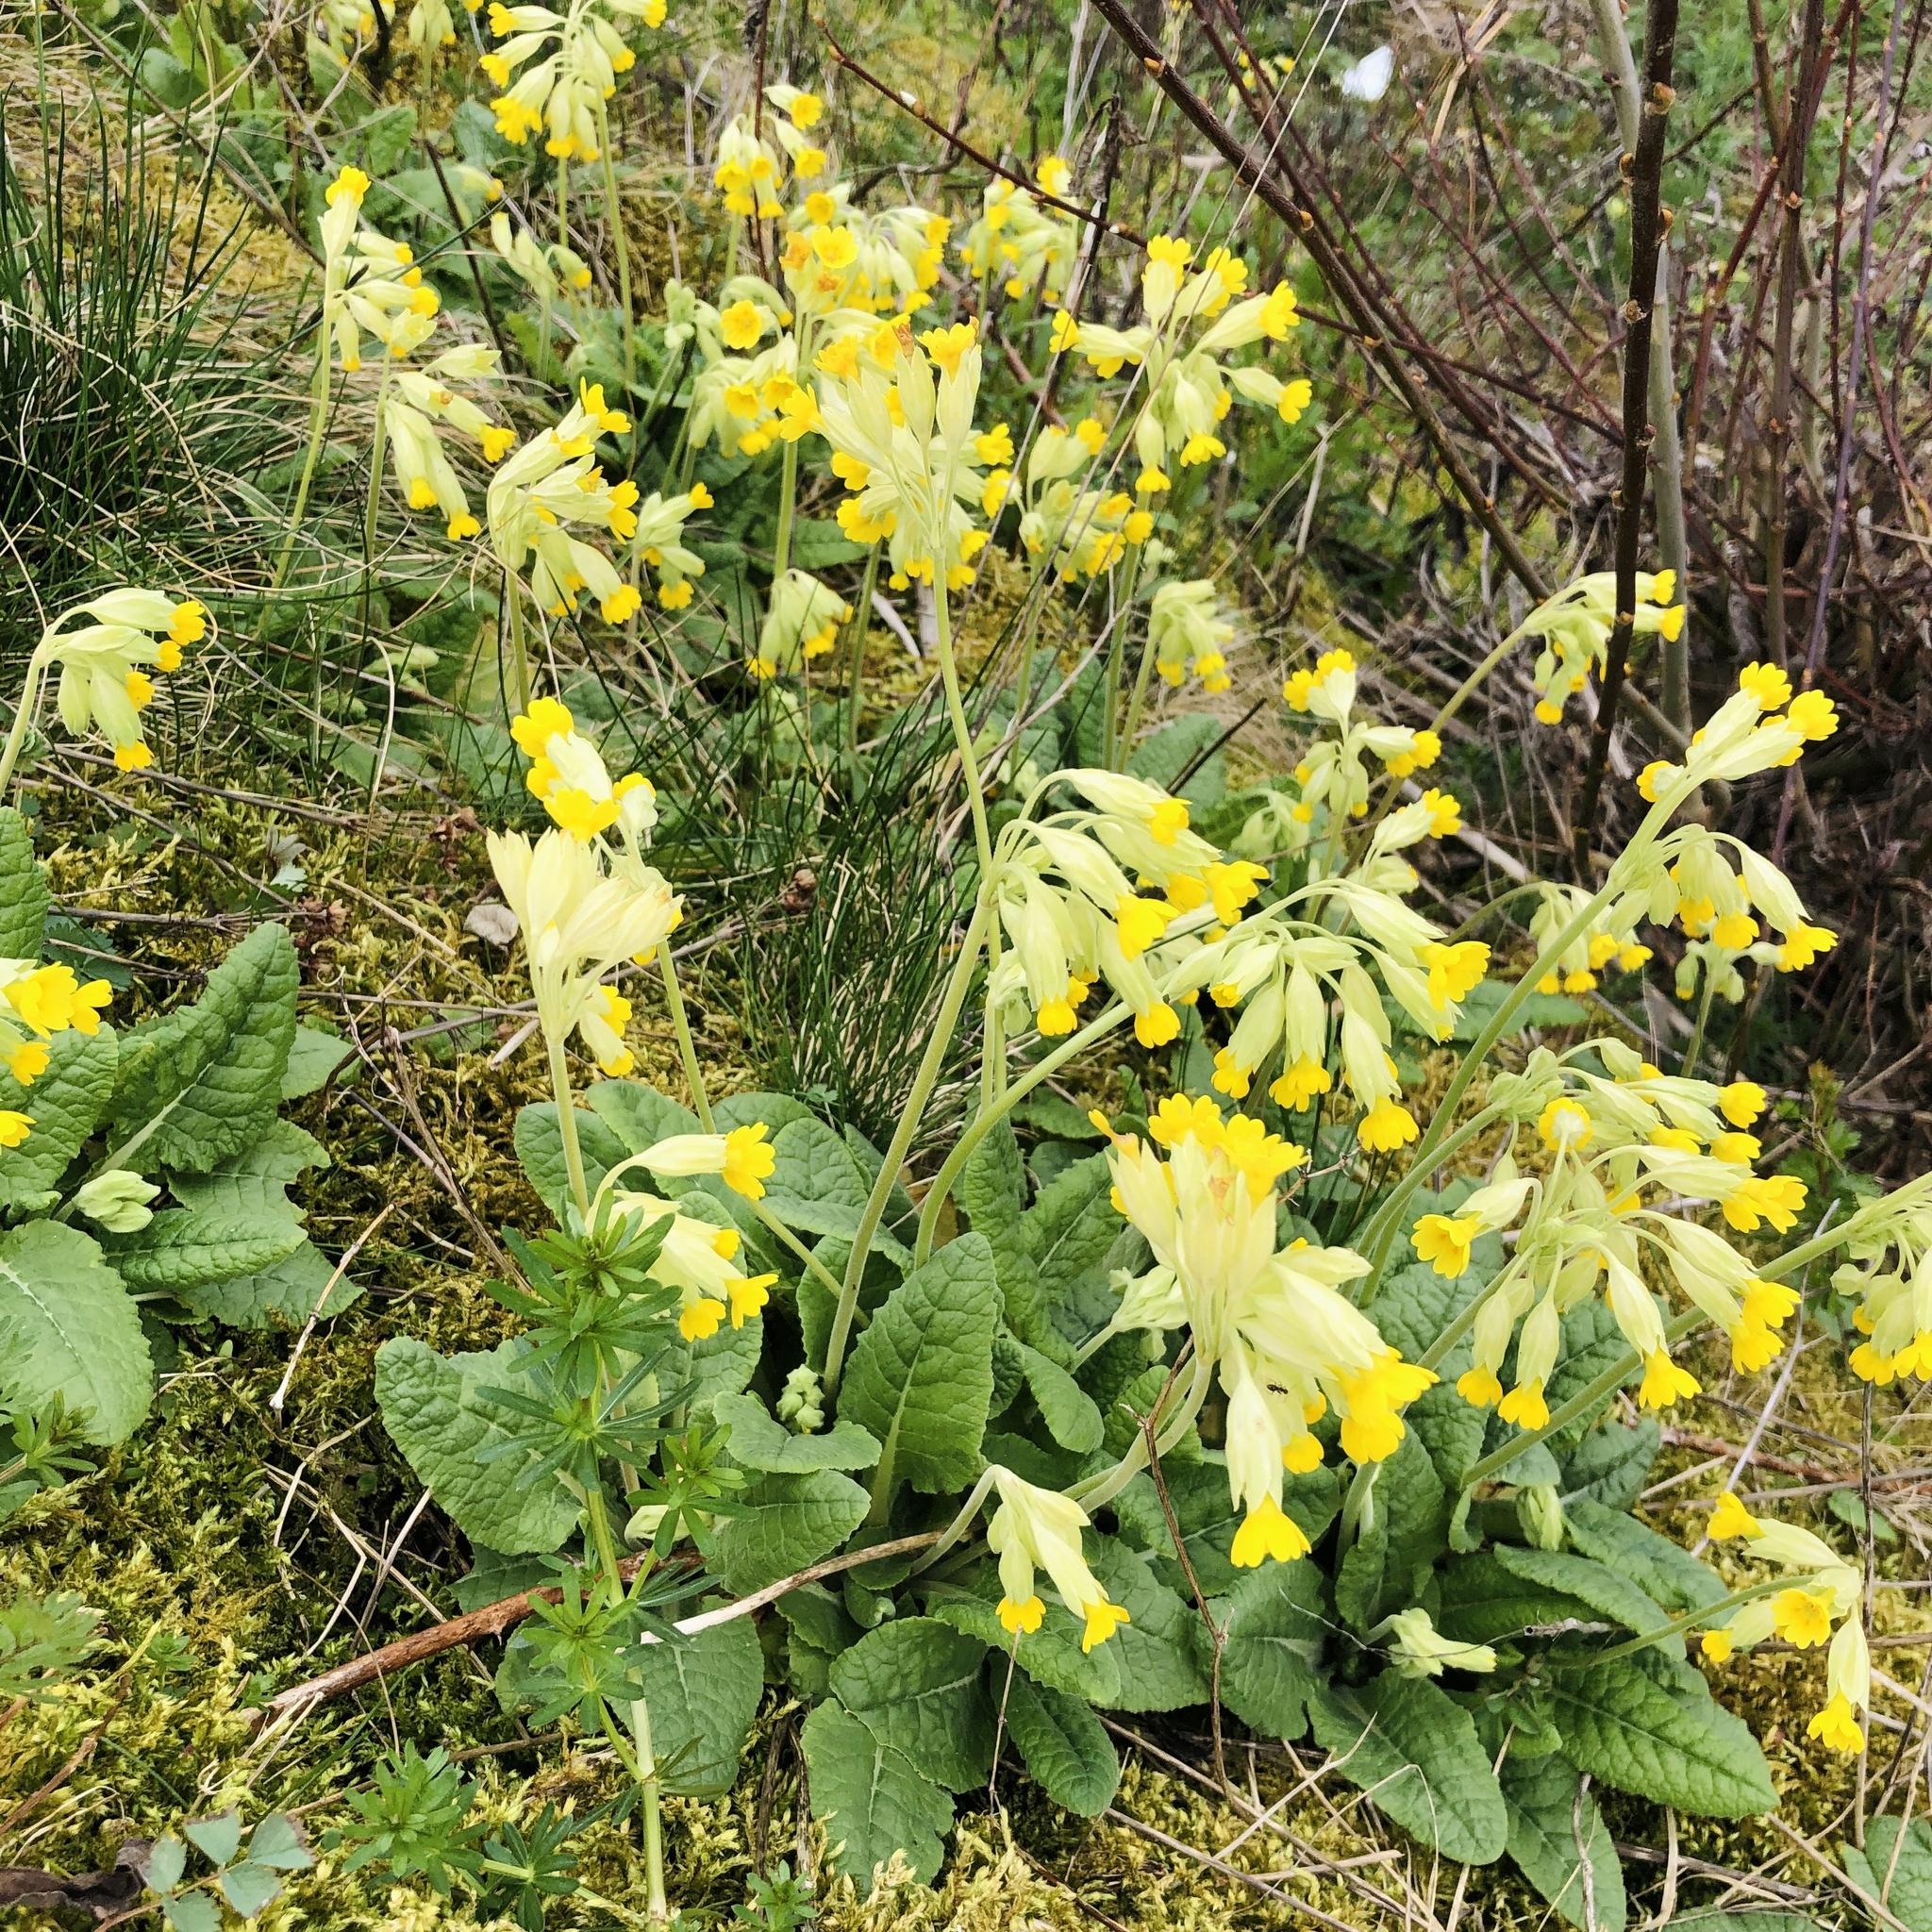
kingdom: Plantae
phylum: Tracheophyta
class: Magnoliopsida
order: Ericales
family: Primulaceae
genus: Primula
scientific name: Primula veris
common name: Cowslip
